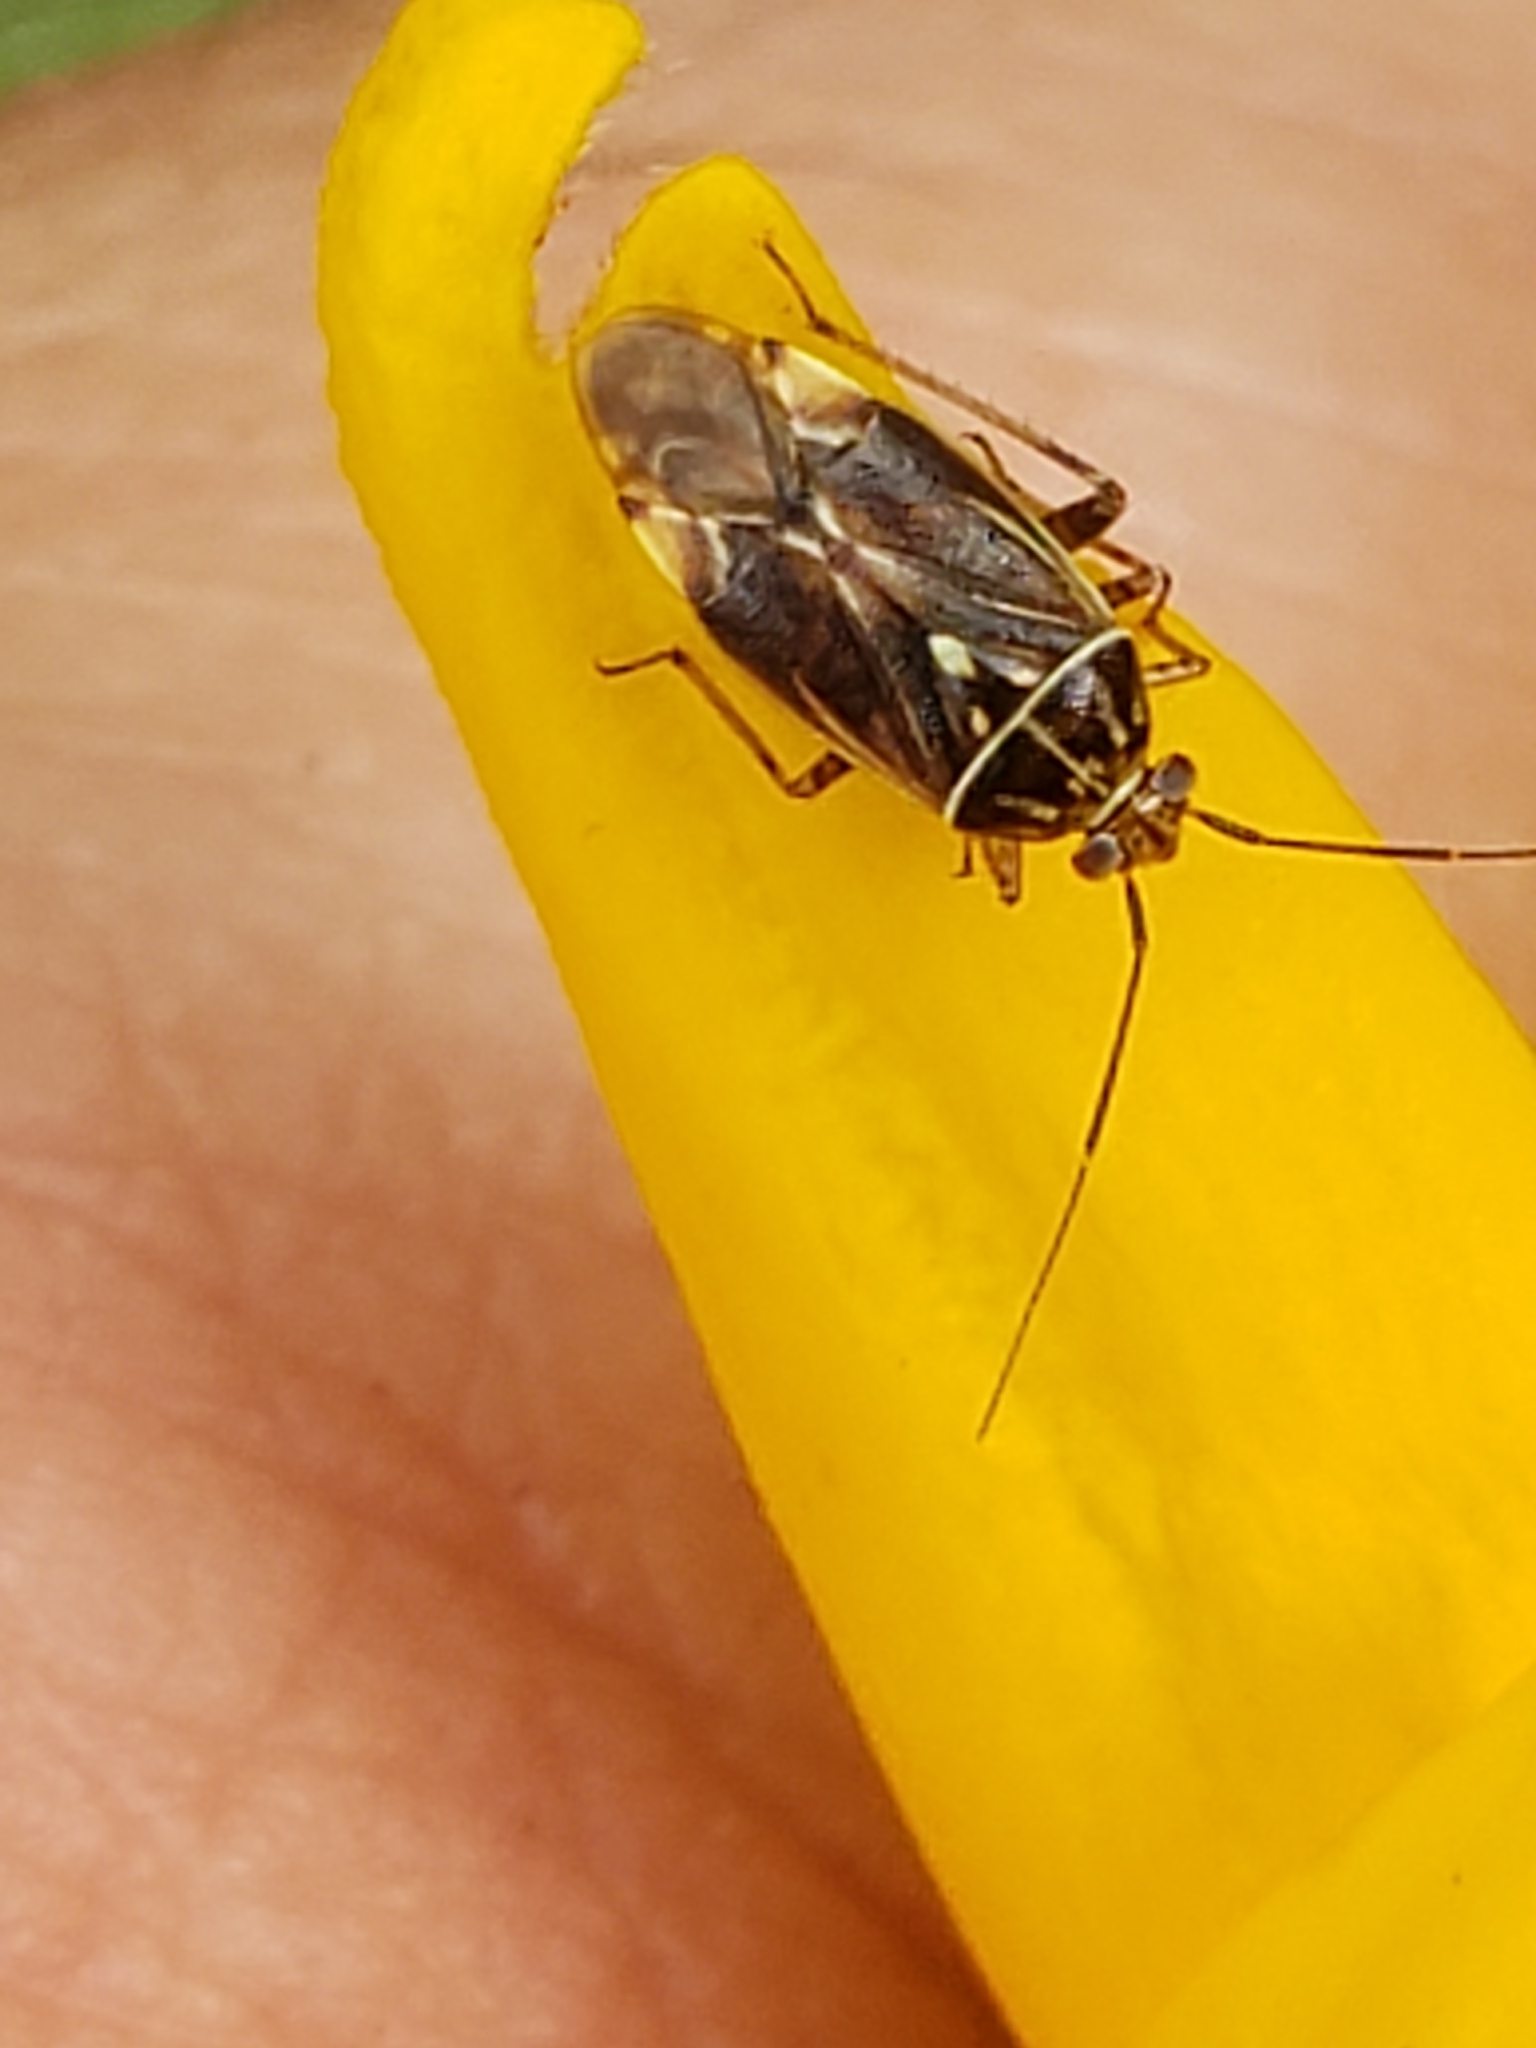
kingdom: Animalia
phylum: Arthropoda
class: Insecta
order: Hemiptera
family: Miridae
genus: Lygus
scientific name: Lygus lineolaris
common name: North american tarnished plant bug
